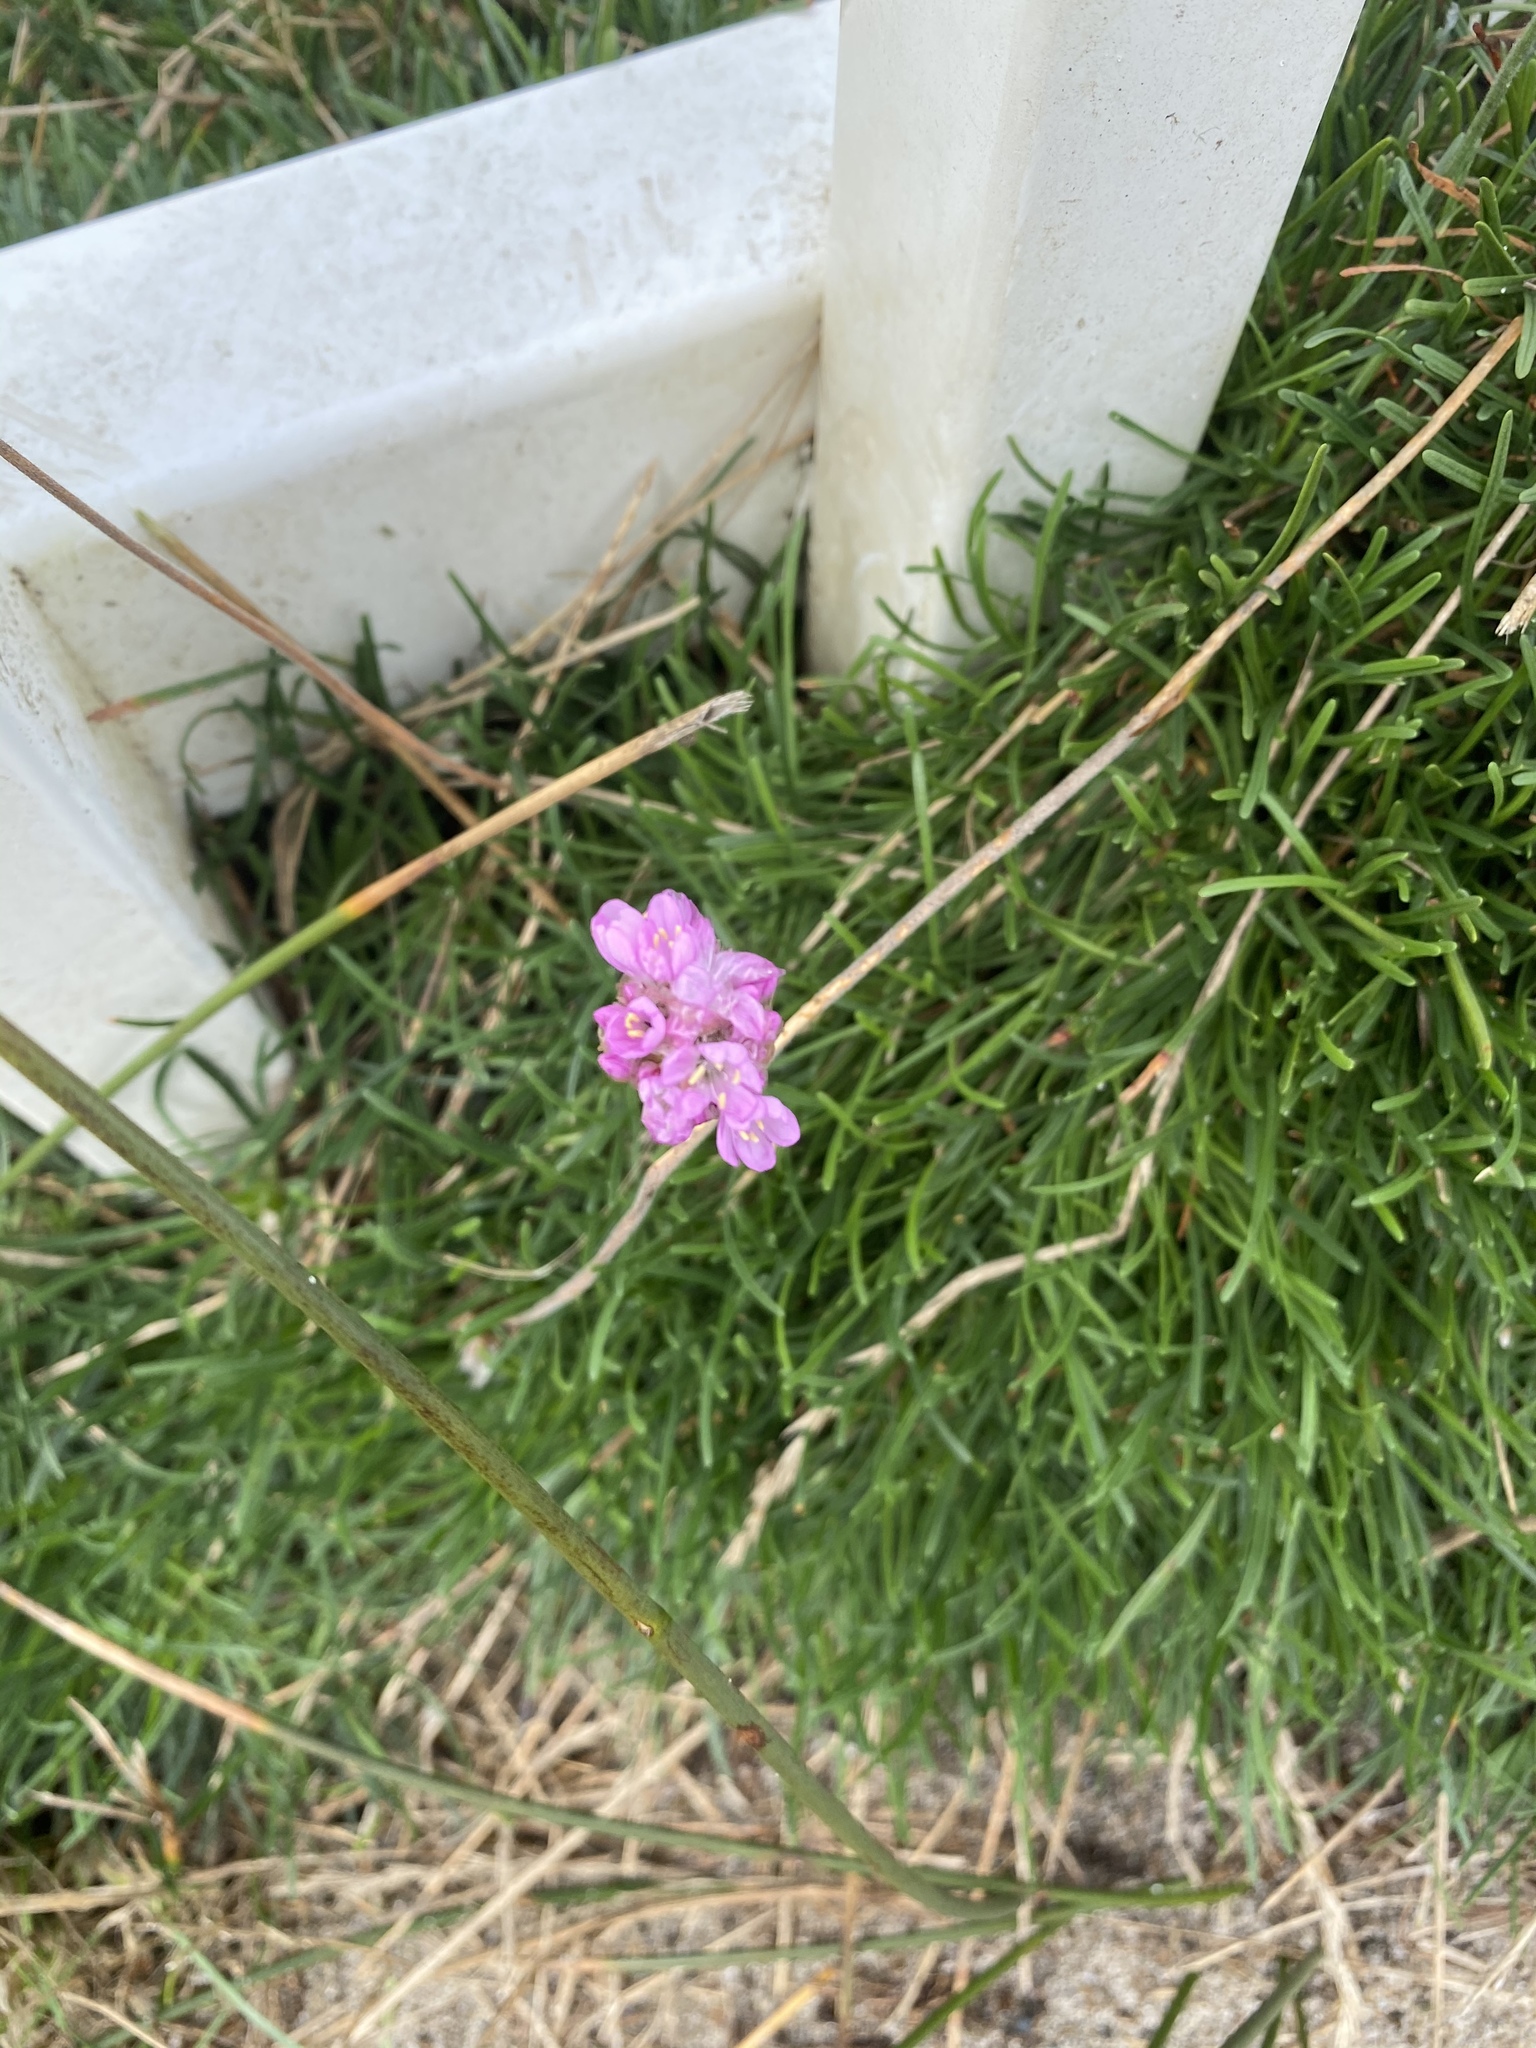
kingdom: Plantae
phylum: Tracheophyta
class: Magnoliopsida
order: Caryophyllales
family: Plumbaginaceae
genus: Armeria
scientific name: Armeria maritima
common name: Thrift
